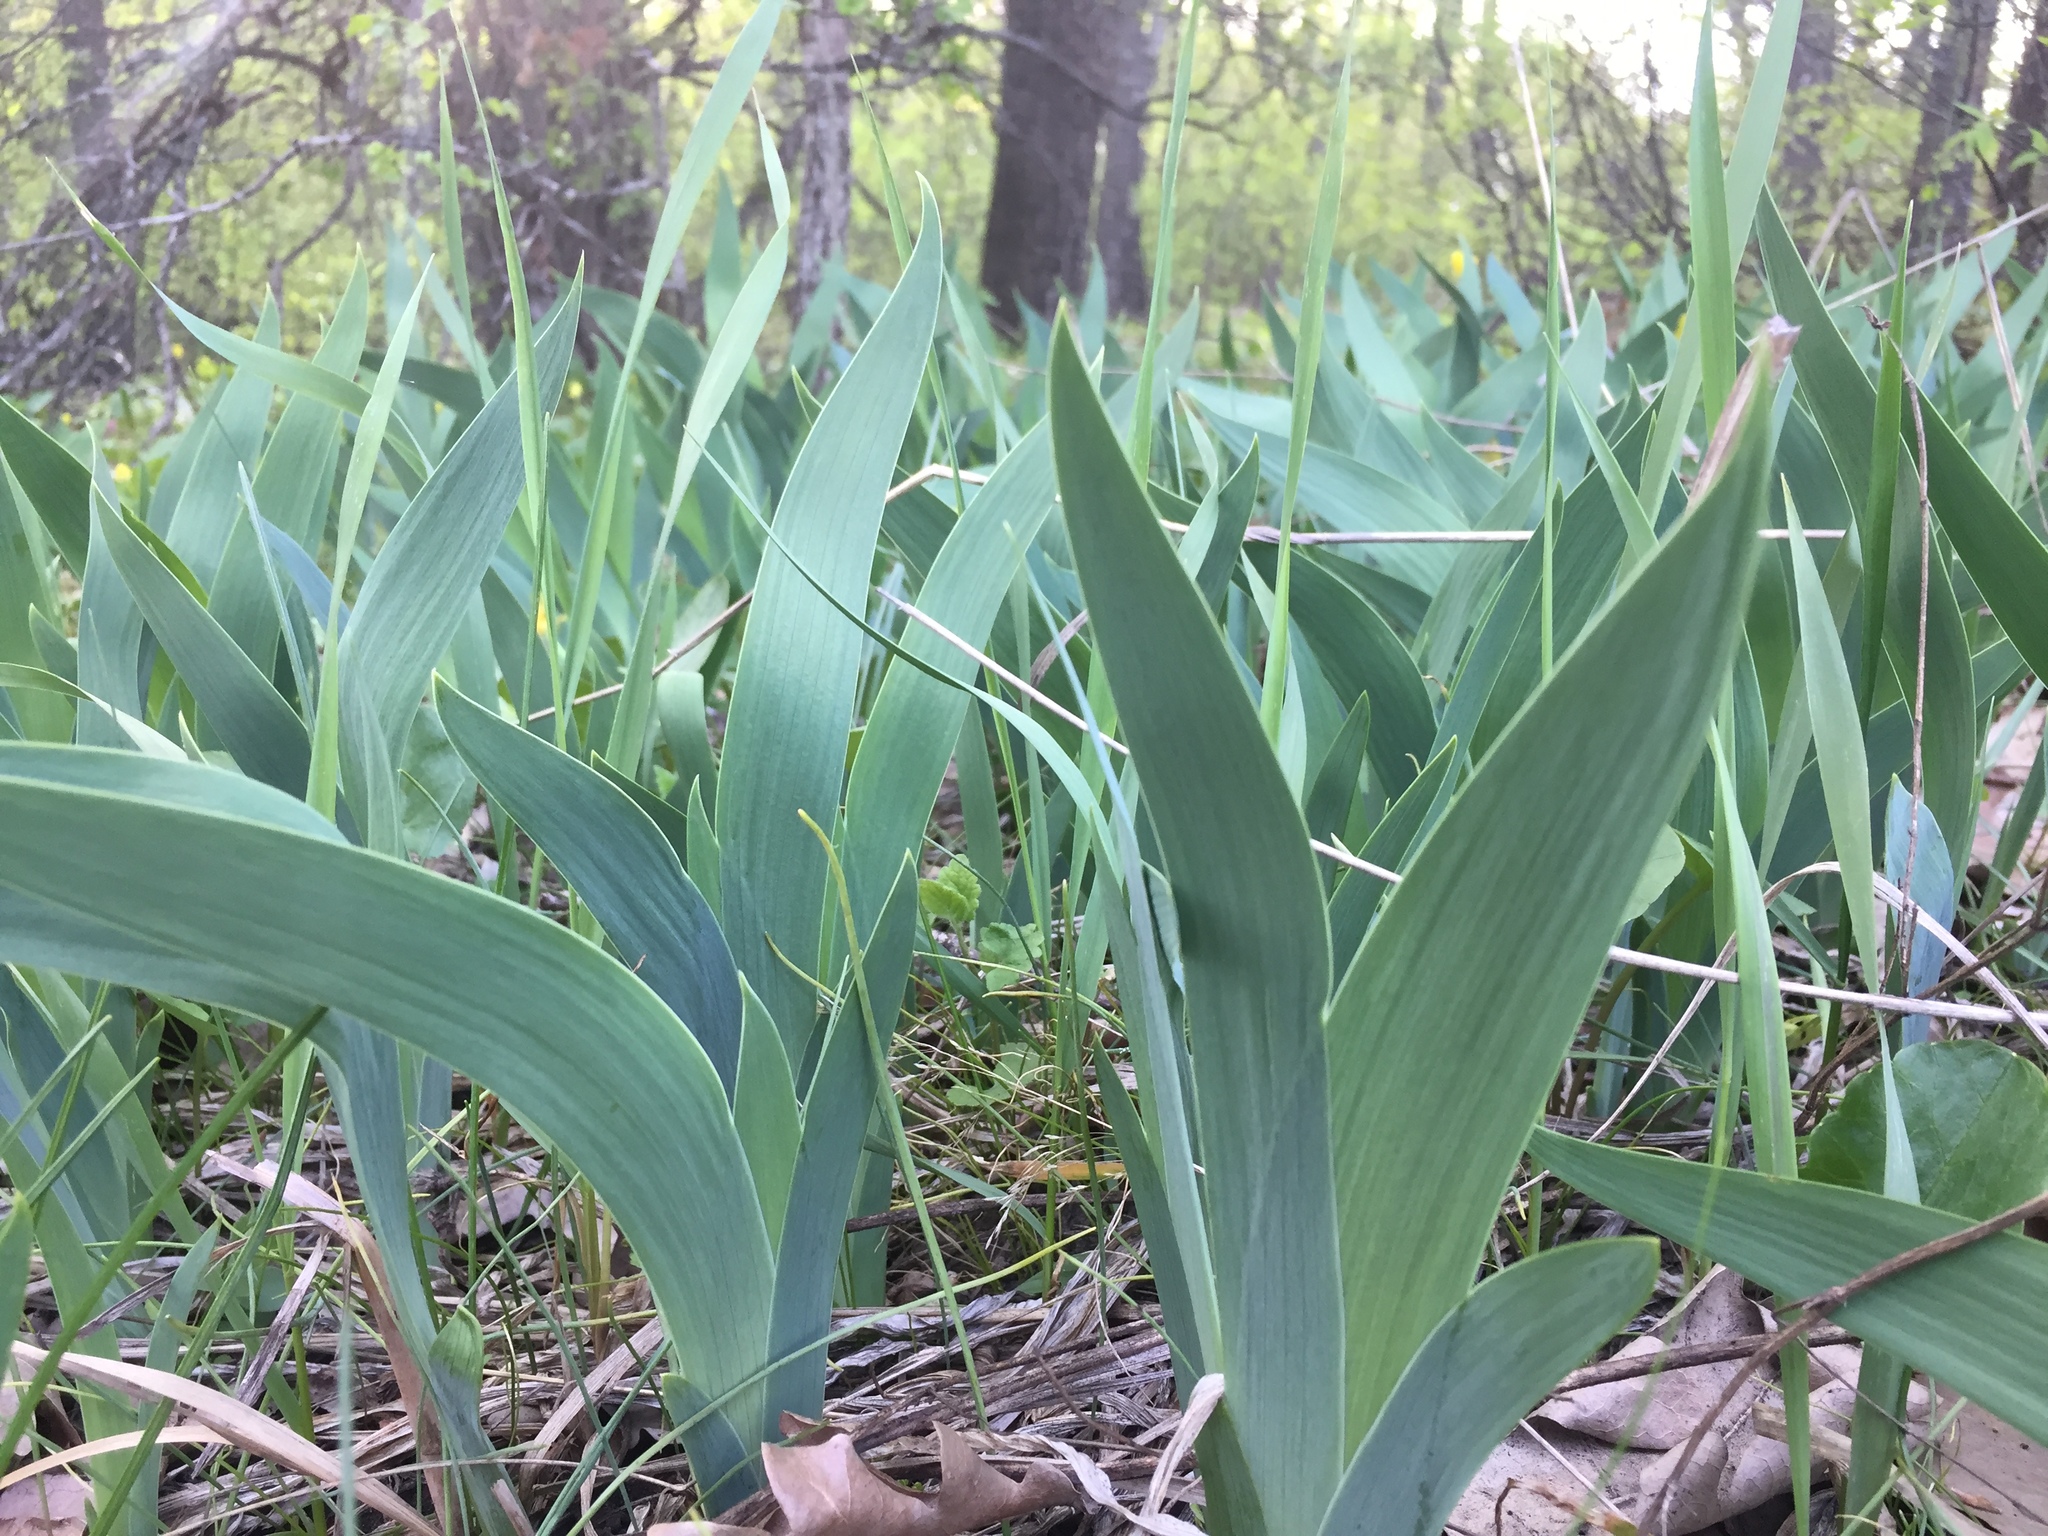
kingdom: Plantae
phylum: Tracheophyta
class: Liliopsida
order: Asparagales
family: Iridaceae
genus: Iris
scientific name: Iris aphylla
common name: Stool iris
